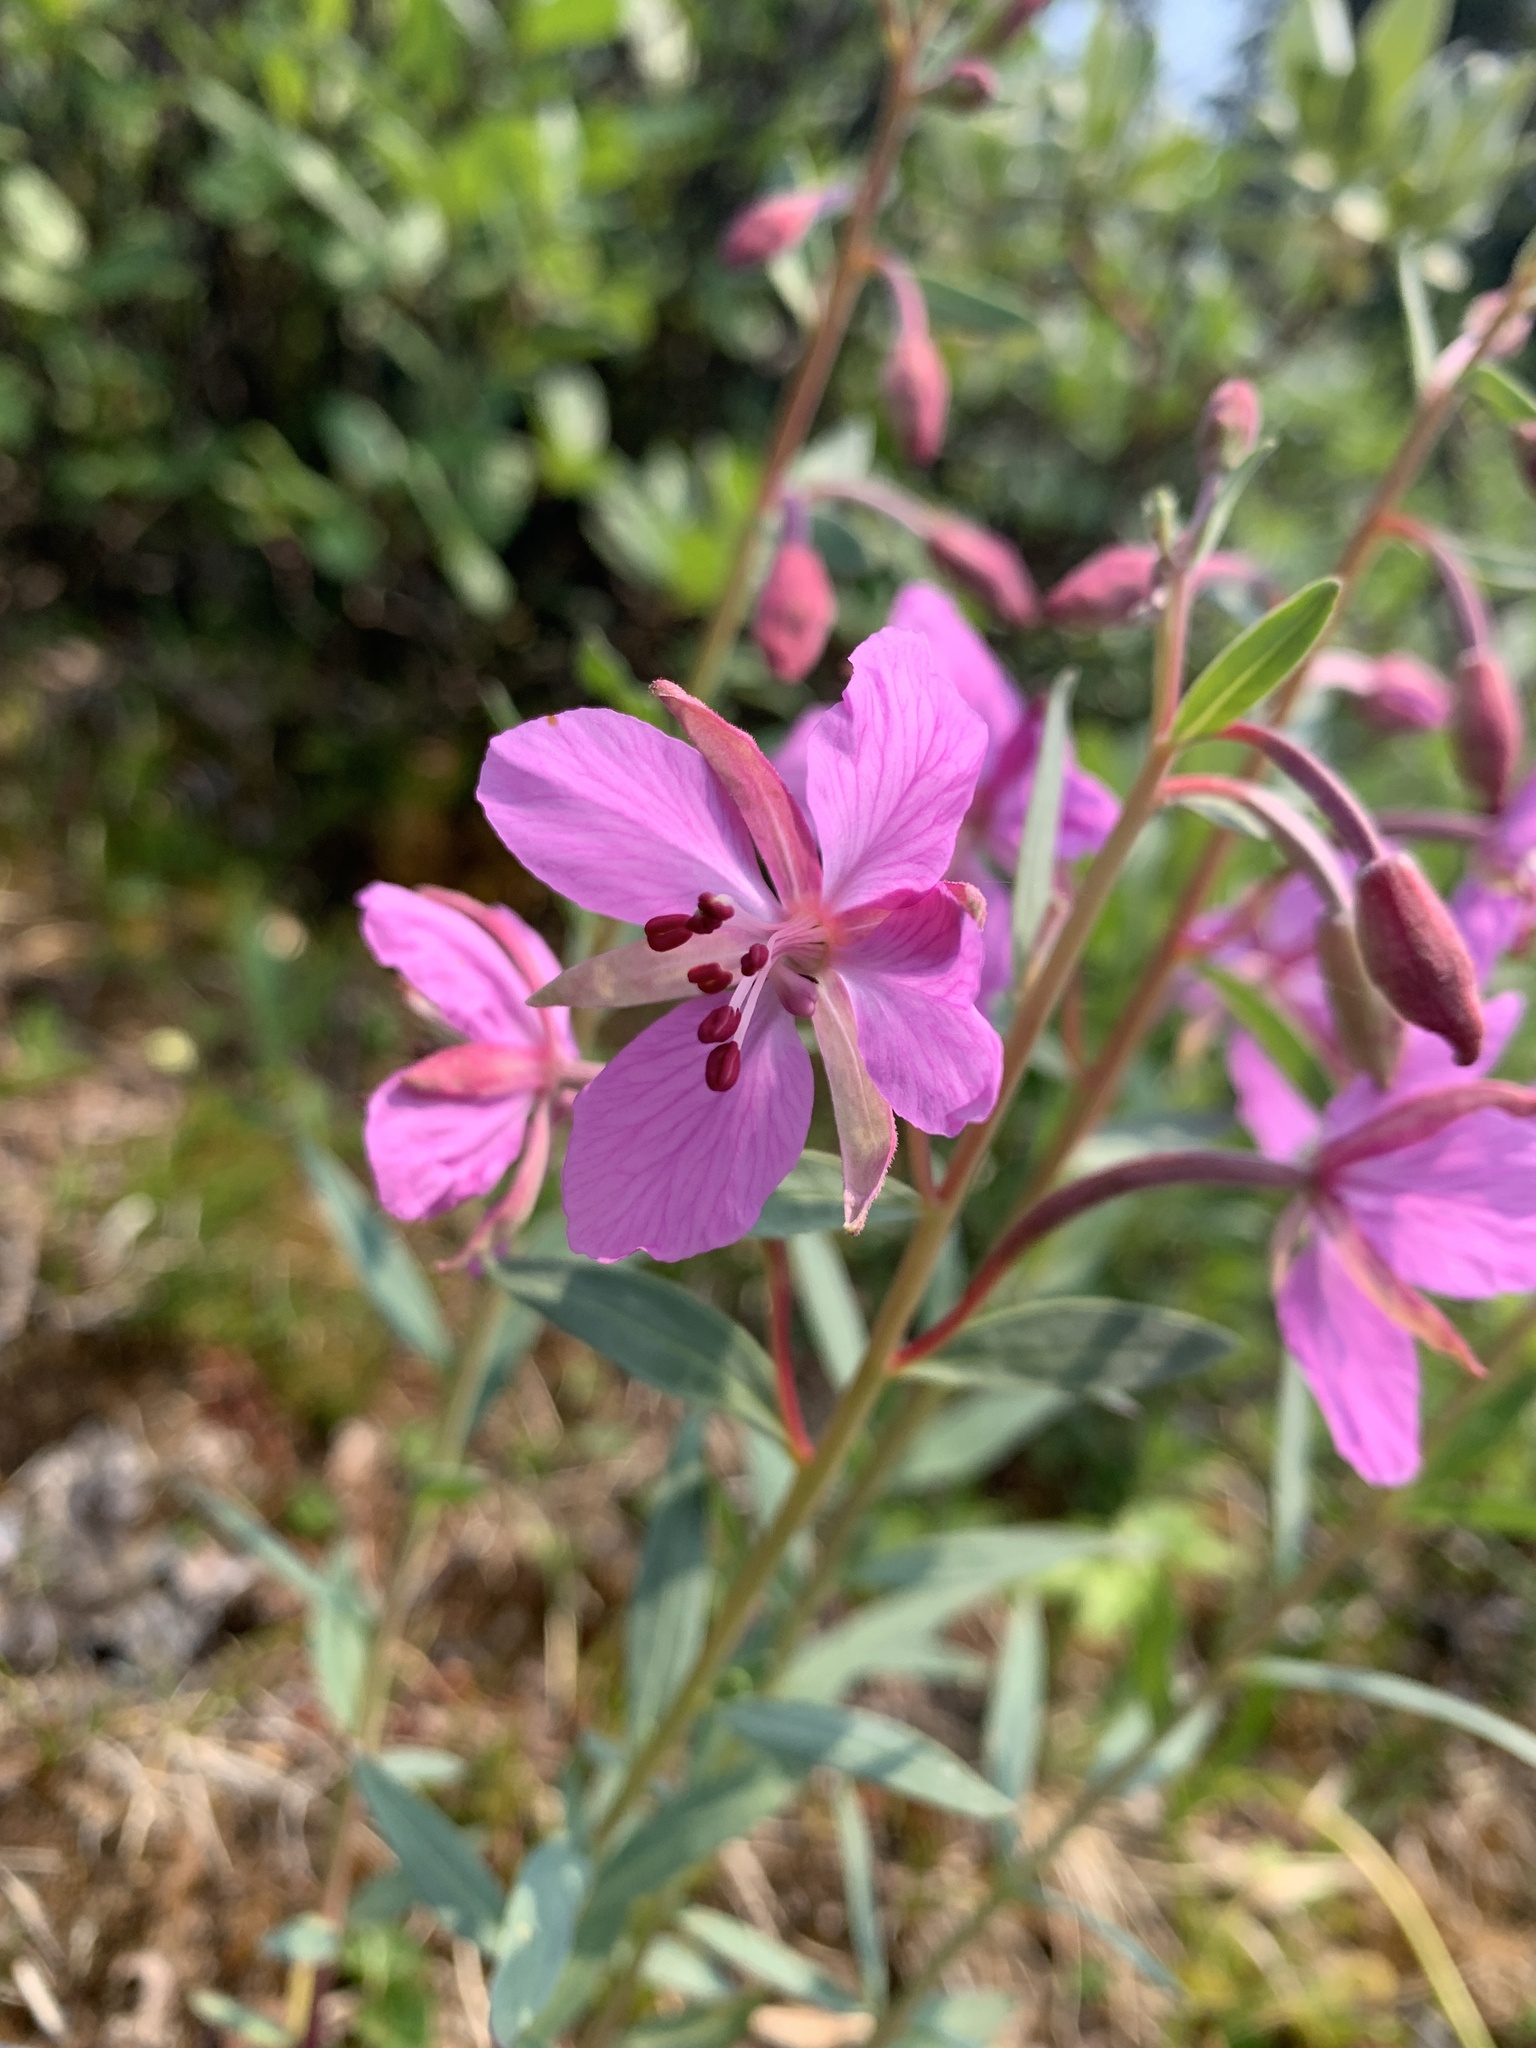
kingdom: Plantae
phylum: Tracheophyta
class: Magnoliopsida
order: Myrtales
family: Onagraceae
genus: Chamaenerion
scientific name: Chamaenerion latifolium
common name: Dwarf fireweed
